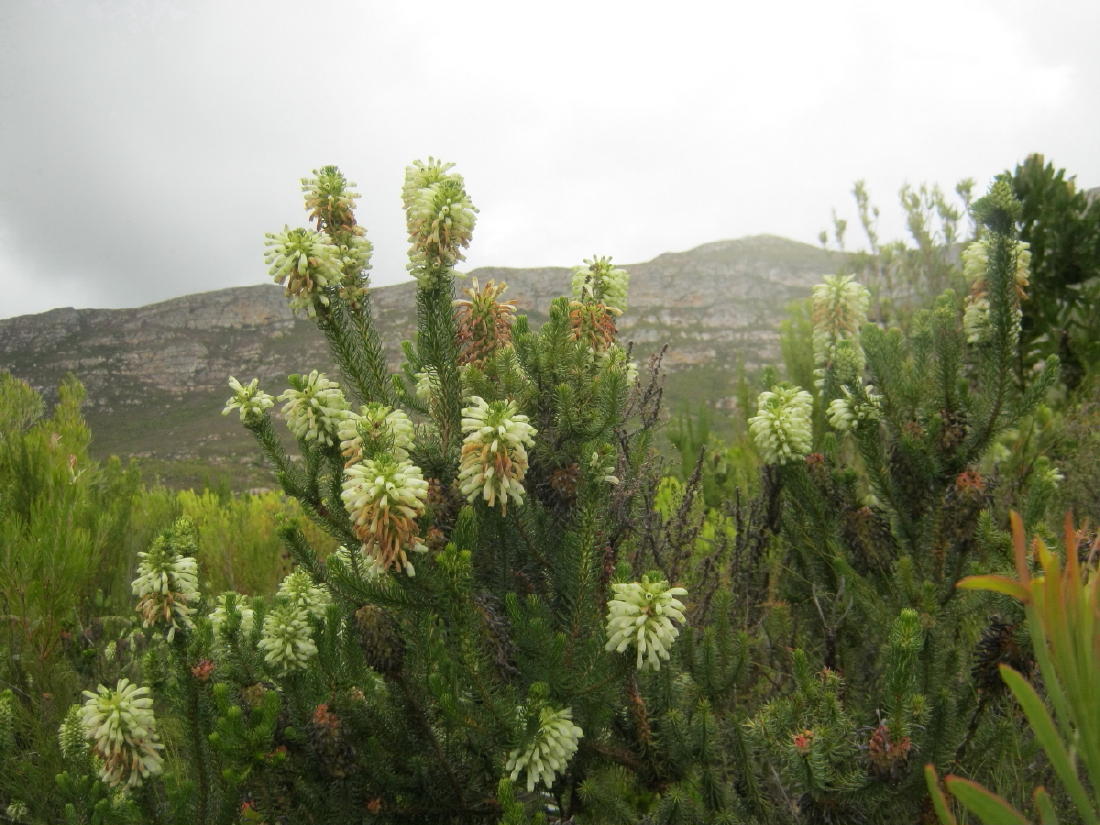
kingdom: Plantae
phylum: Tracheophyta
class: Magnoliopsida
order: Ericales
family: Ericaceae
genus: Erica
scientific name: Erica sessiliflora
